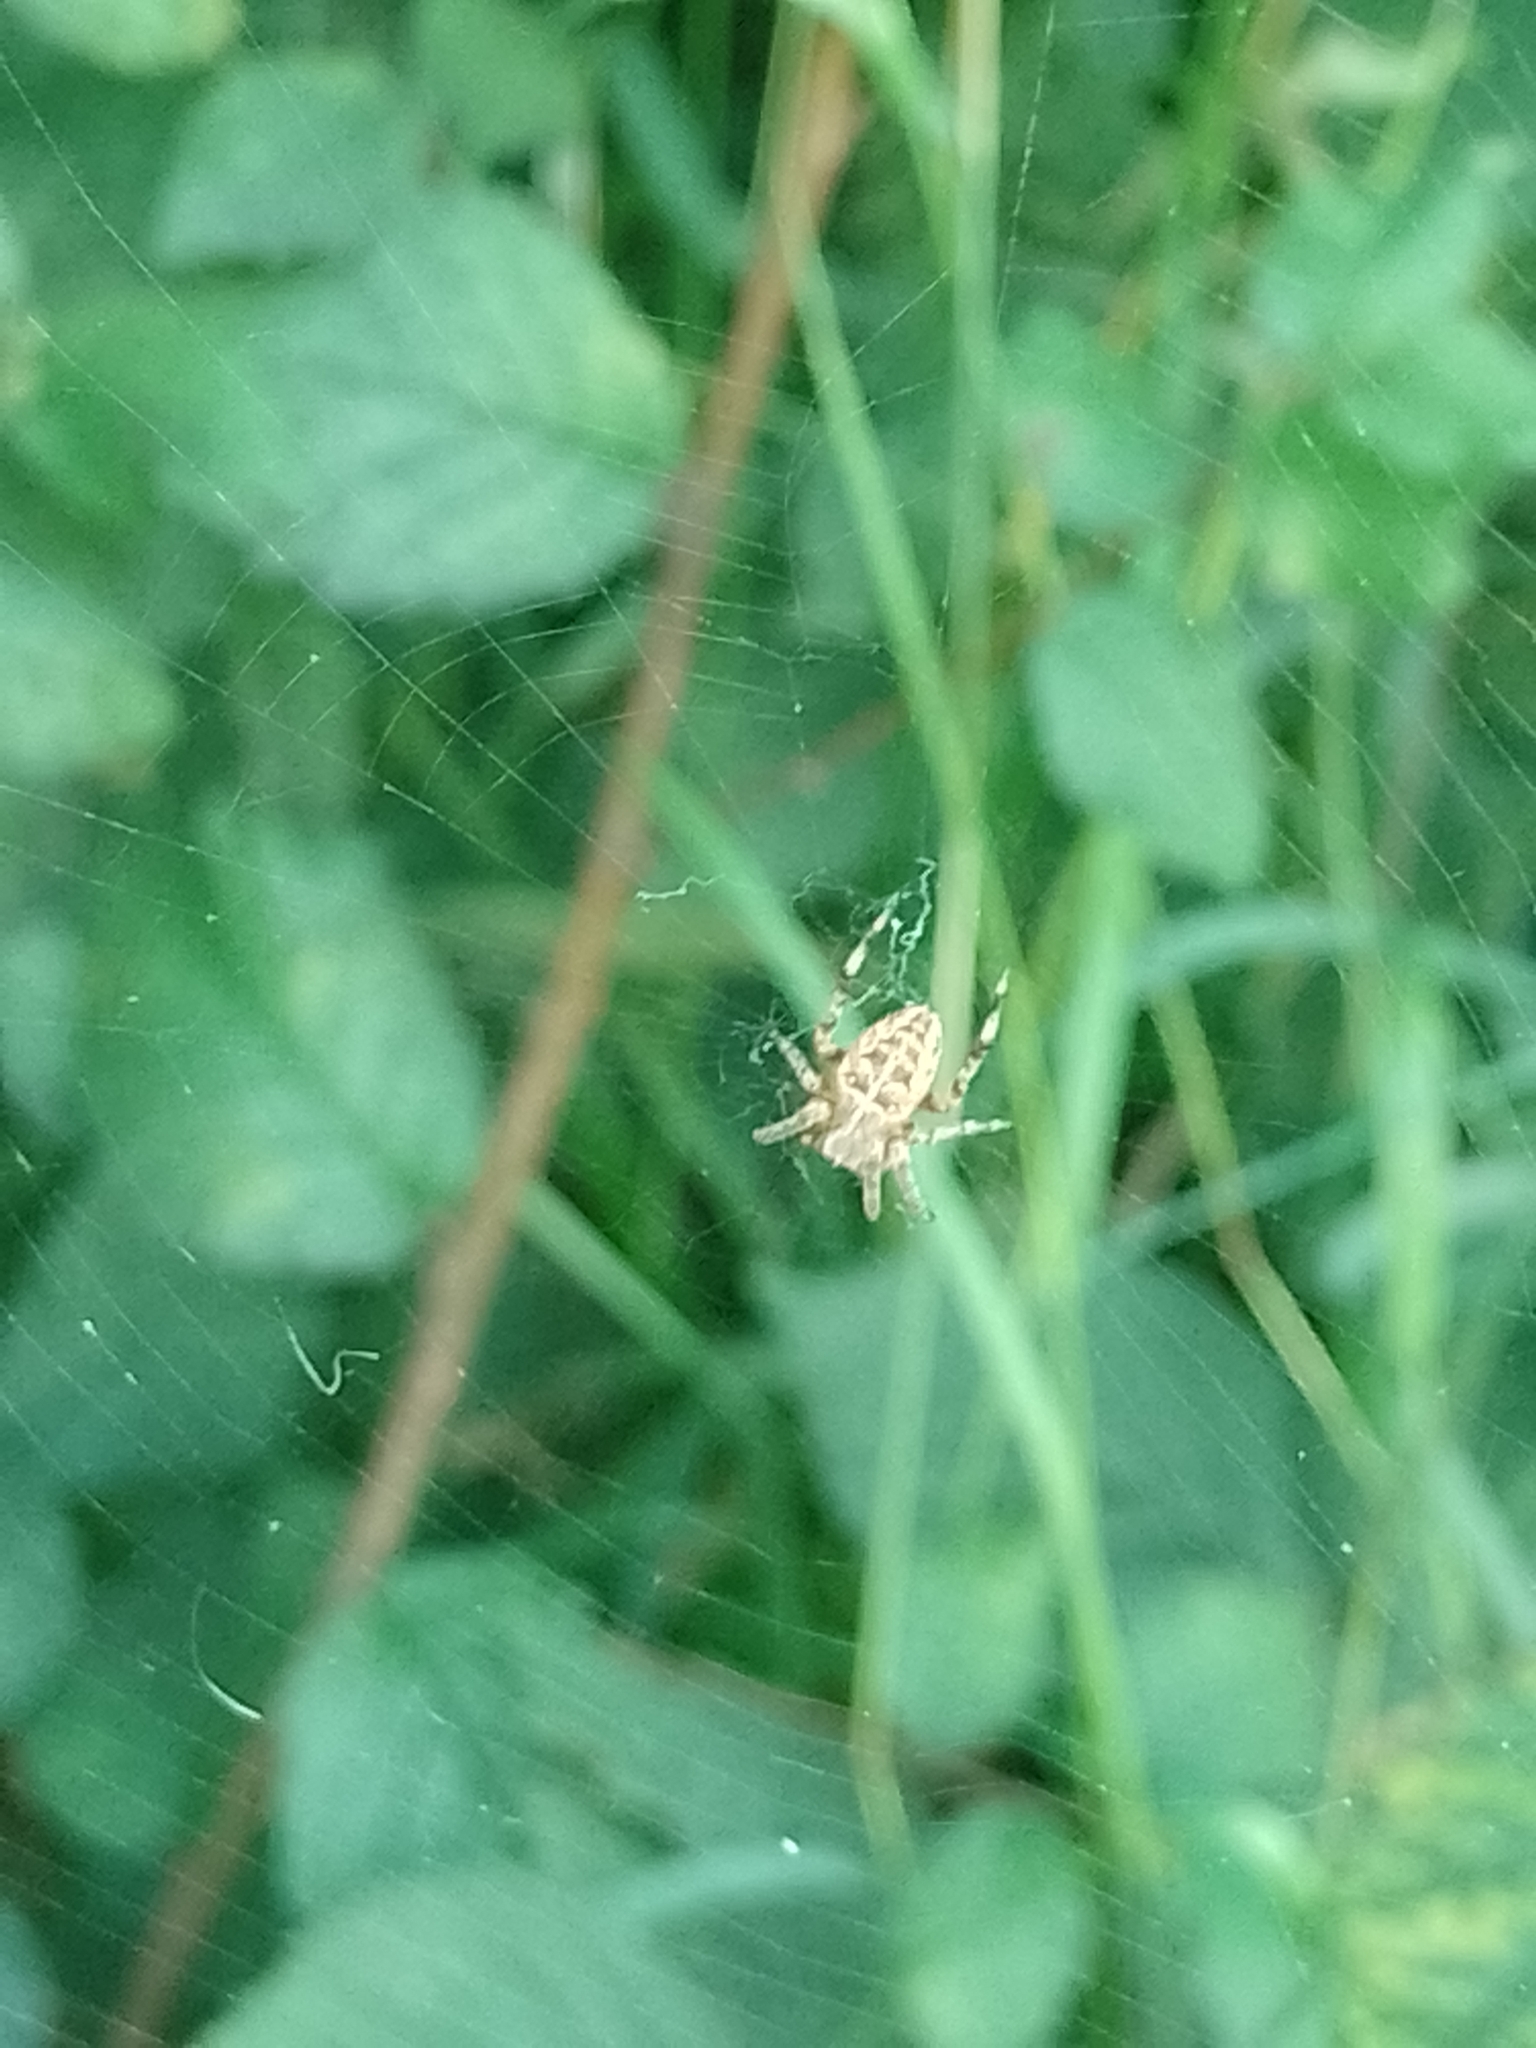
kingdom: Animalia
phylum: Arthropoda
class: Arachnida
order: Araneae
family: Araneidae
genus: Araneus
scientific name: Araneus diadematus
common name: Cross orbweaver
